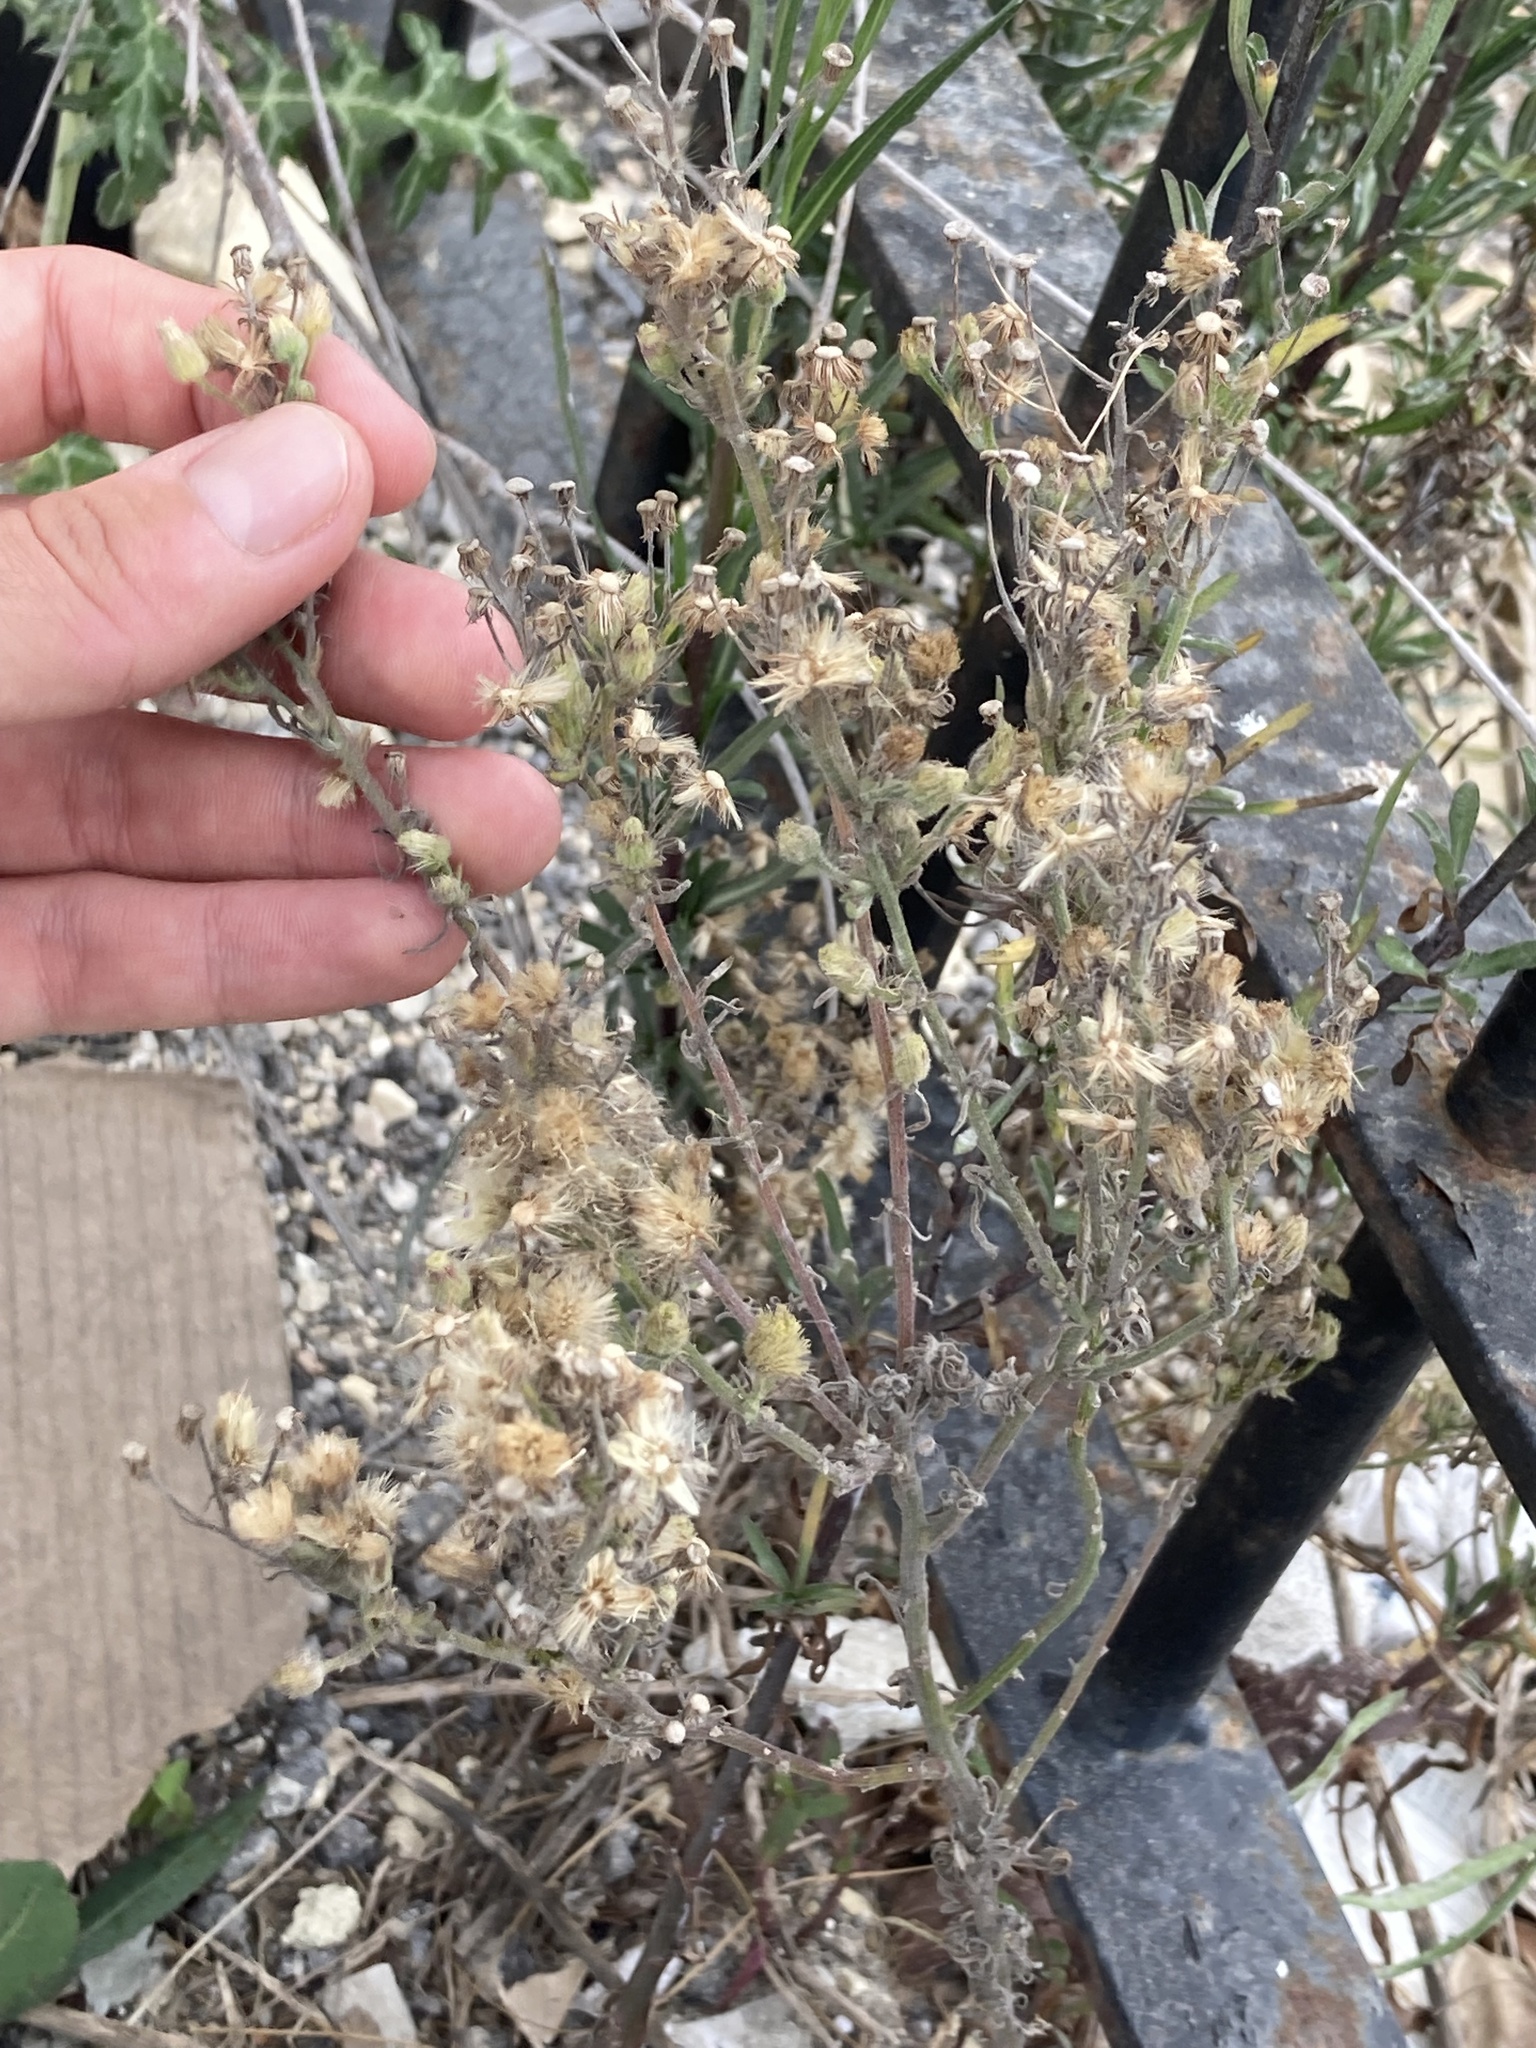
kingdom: Plantae
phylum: Tracheophyta
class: Magnoliopsida
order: Asterales
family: Asteraceae
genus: Erigeron
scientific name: Erigeron bonariensis
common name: Argentine fleabane
